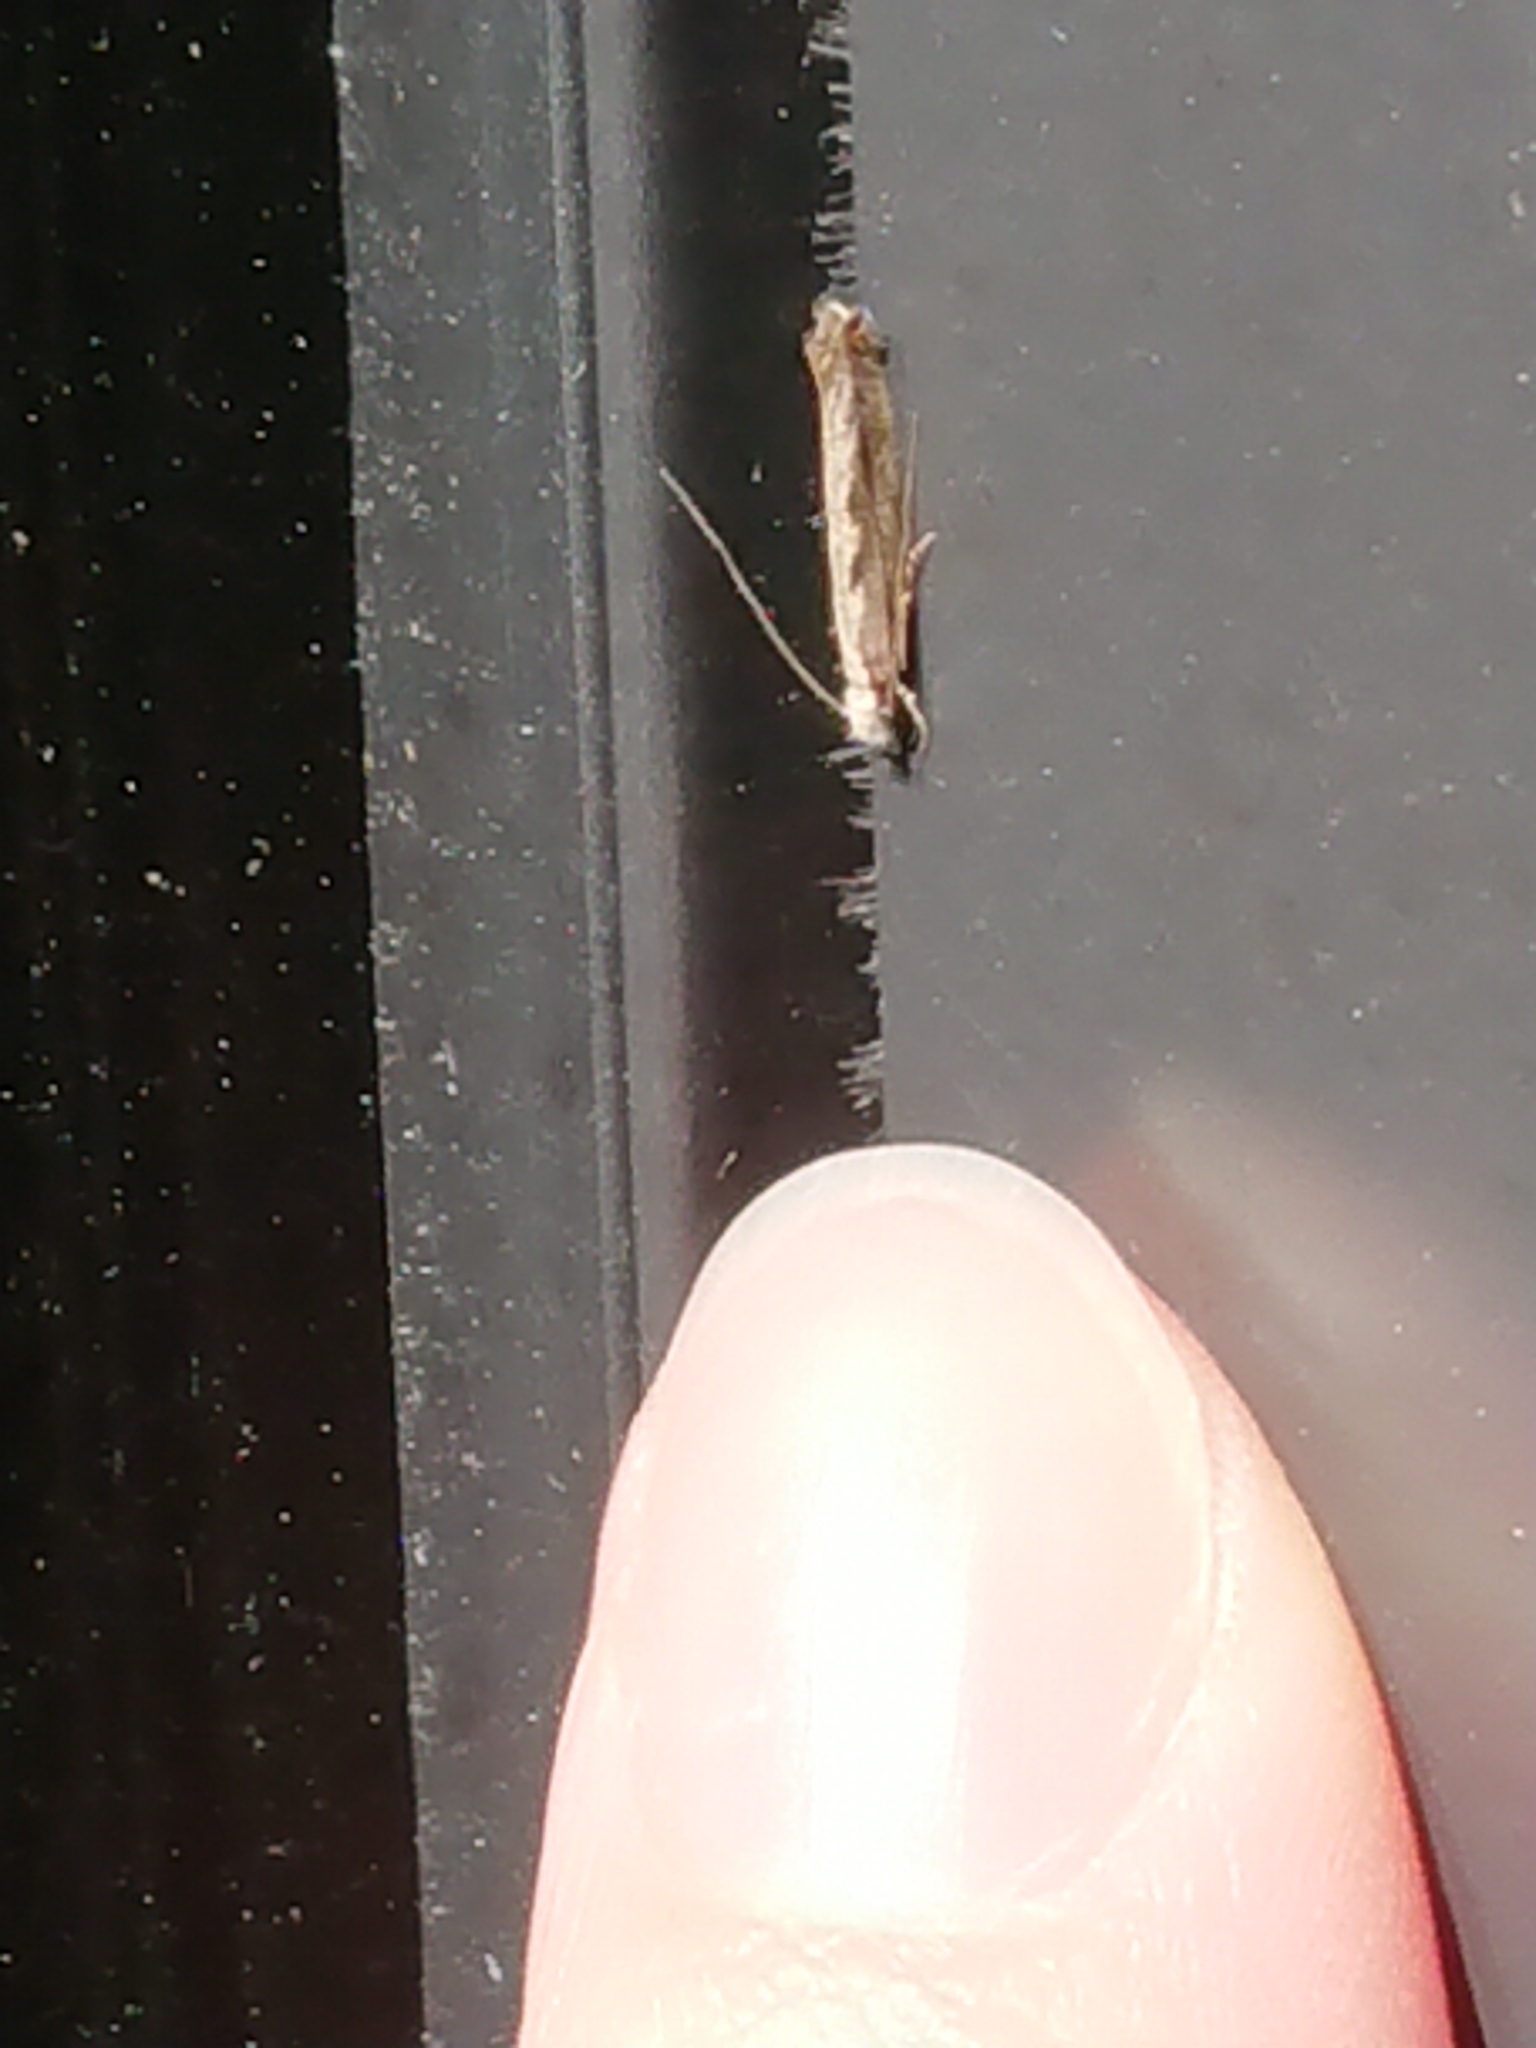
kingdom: Animalia
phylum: Arthropoda
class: Insecta
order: Lepidoptera
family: Tineidae
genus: Erechthias
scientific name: Erechthias fulguritella
